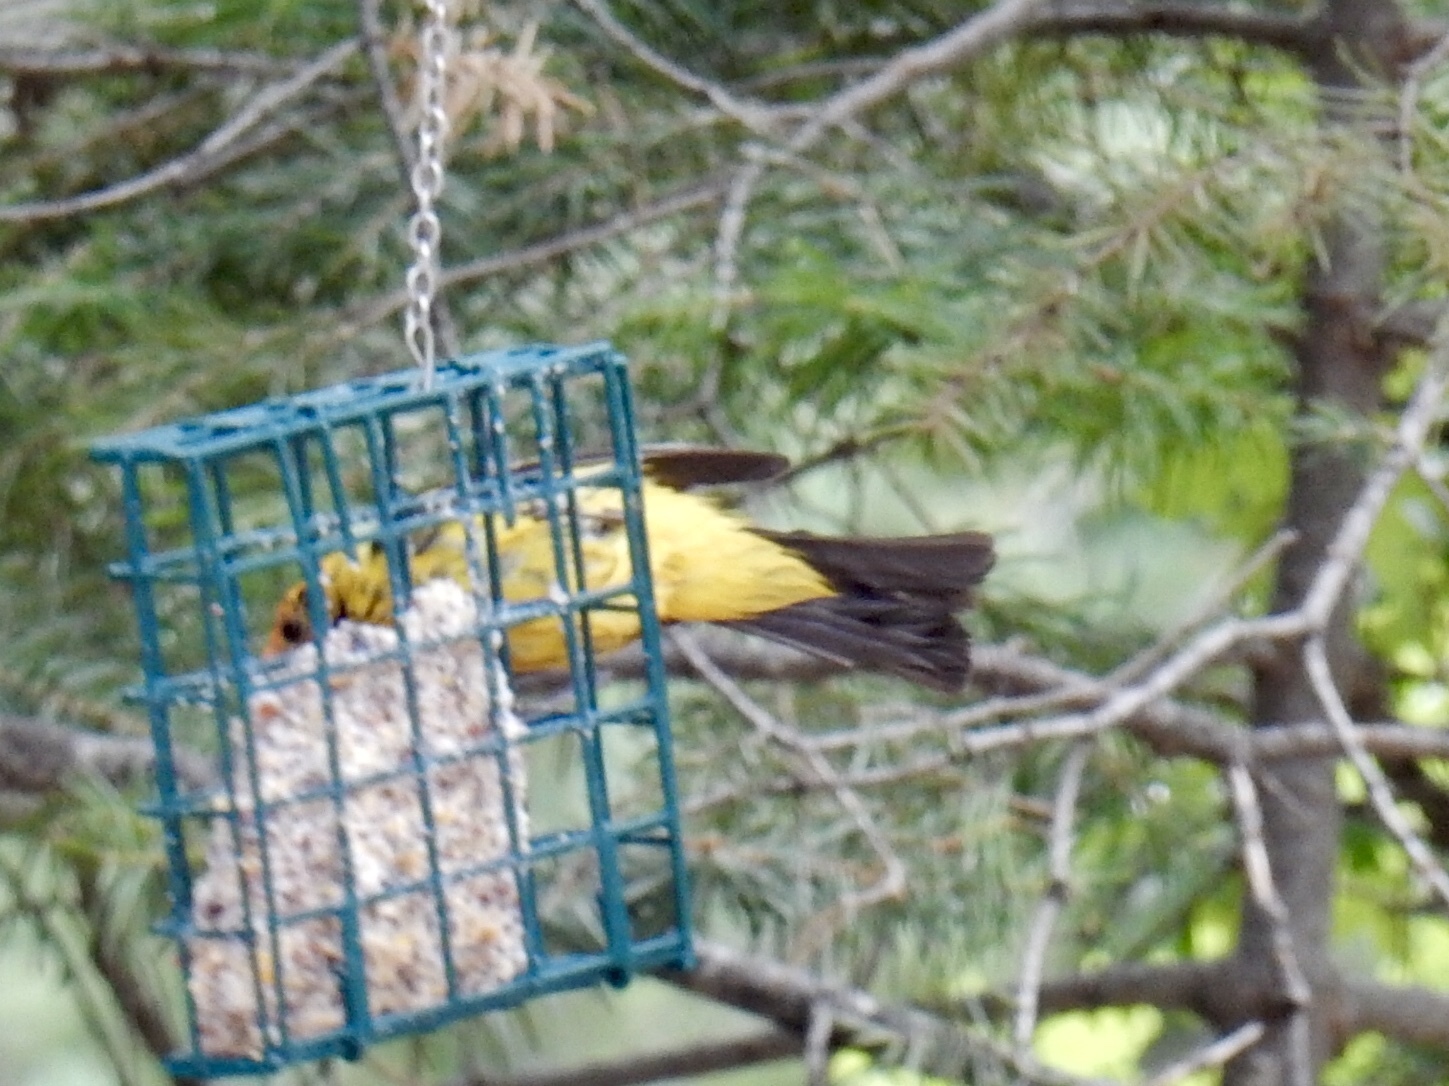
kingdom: Animalia
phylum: Chordata
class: Aves
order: Passeriformes
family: Cardinalidae
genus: Piranga
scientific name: Piranga ludoviciana
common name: Western tanager
